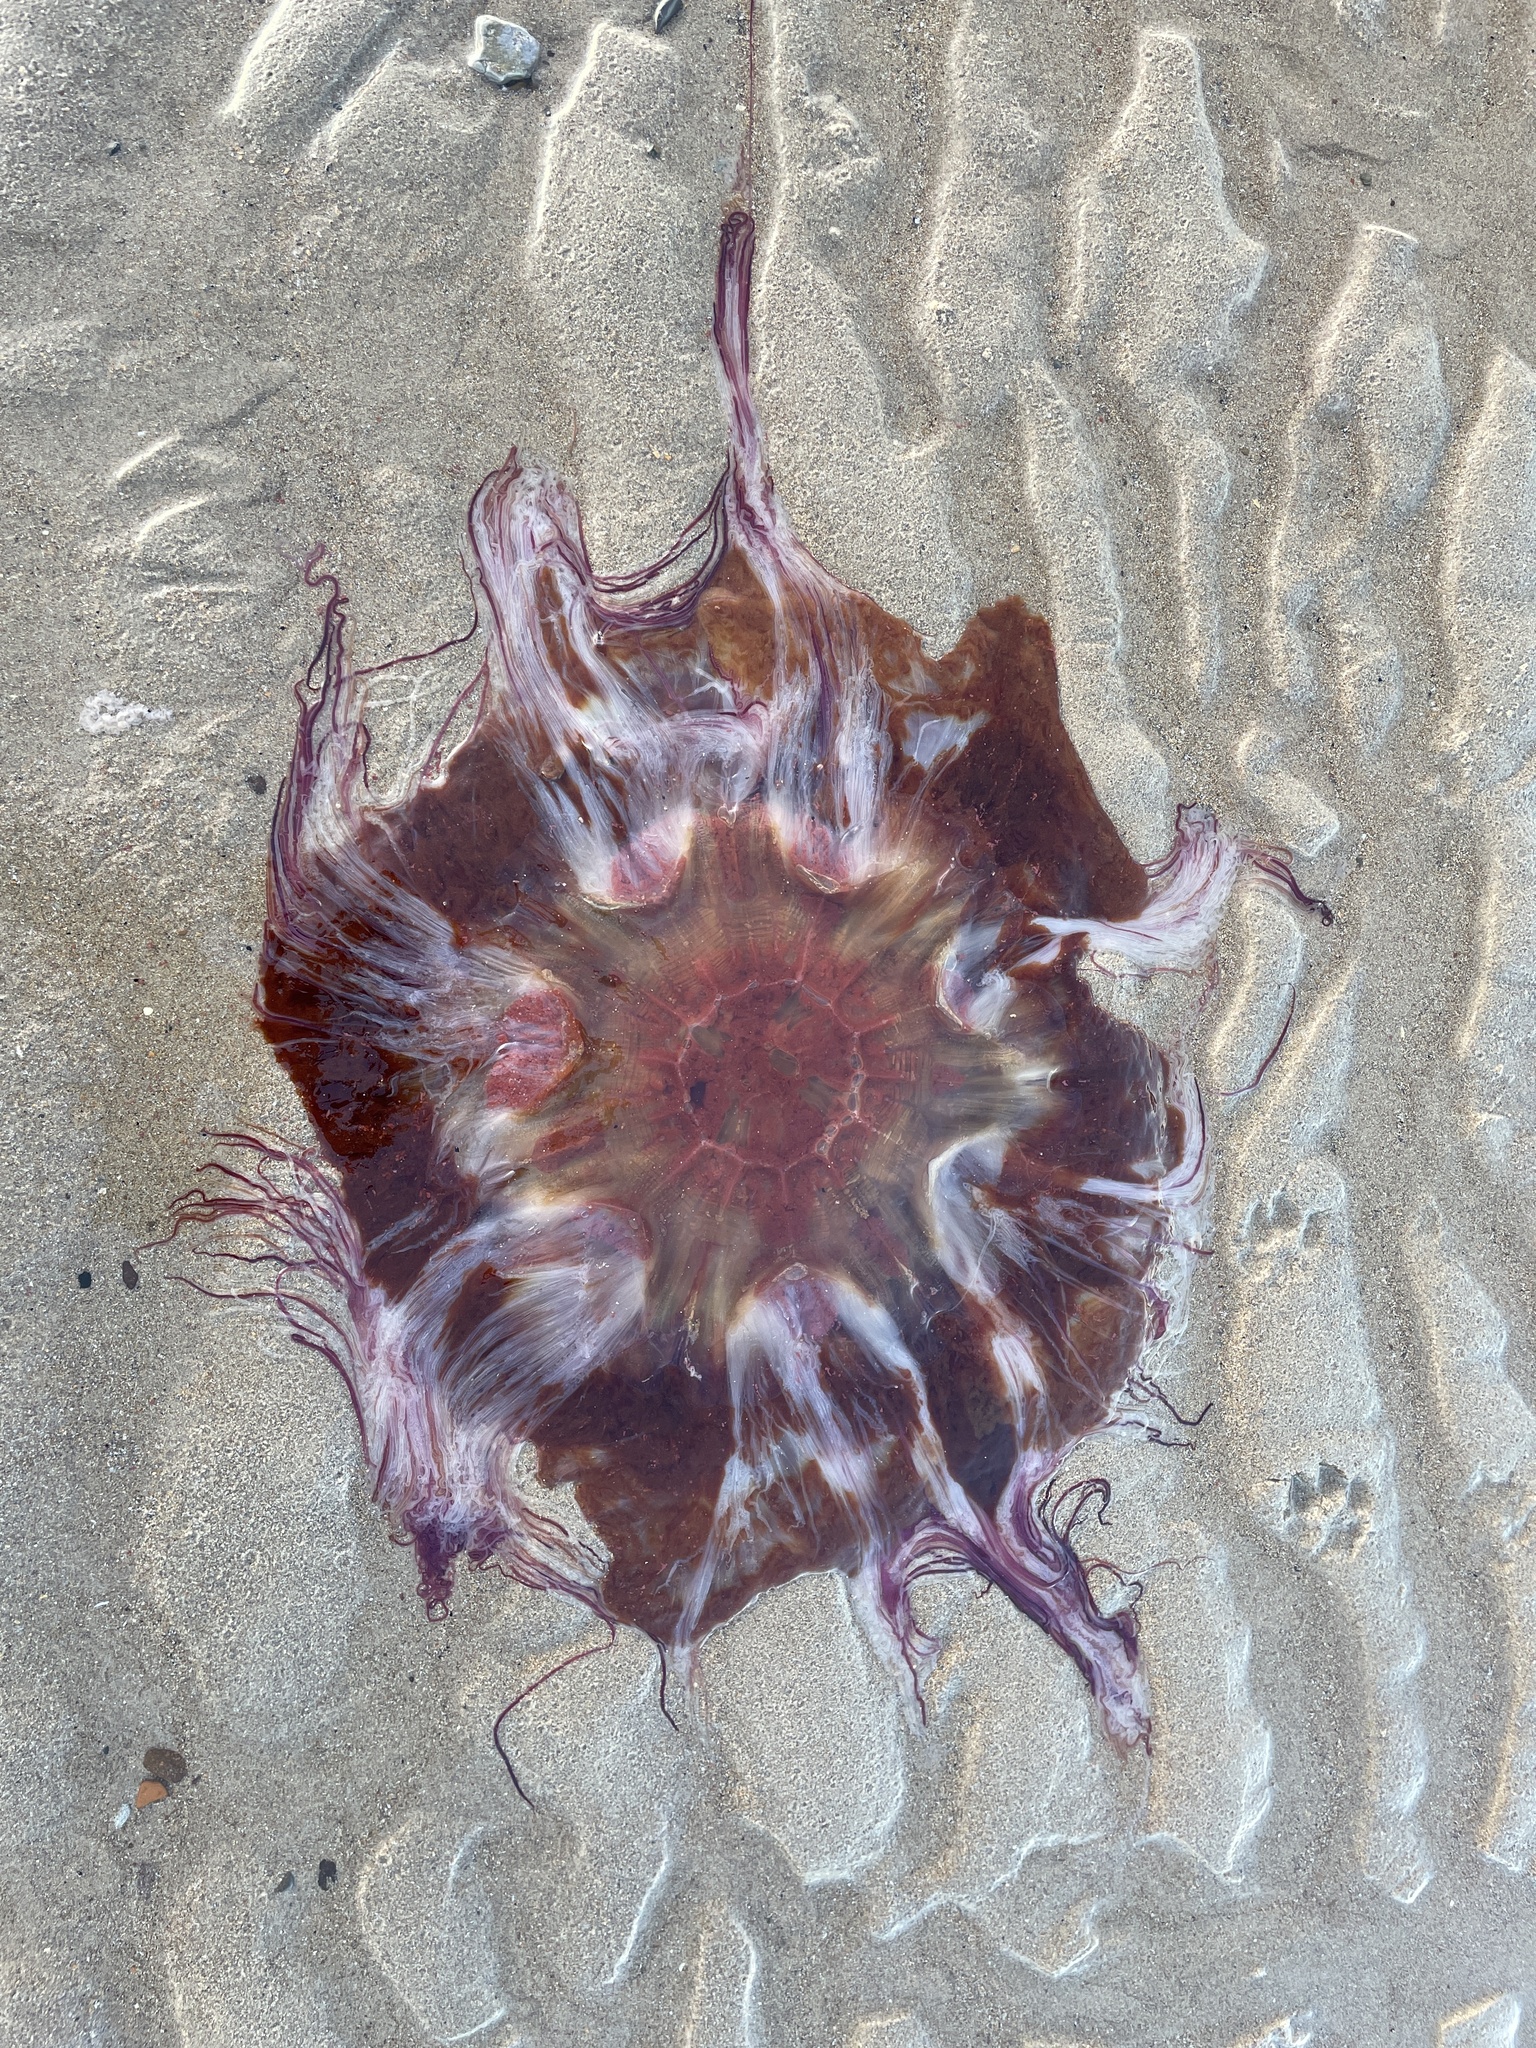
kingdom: Animalia
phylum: Cnidaria
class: Scyphozoa
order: Semaeostomeae
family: Cyaneidae
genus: Cyanea
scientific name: Cyanea capillata
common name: Lion's mane jellyfish
